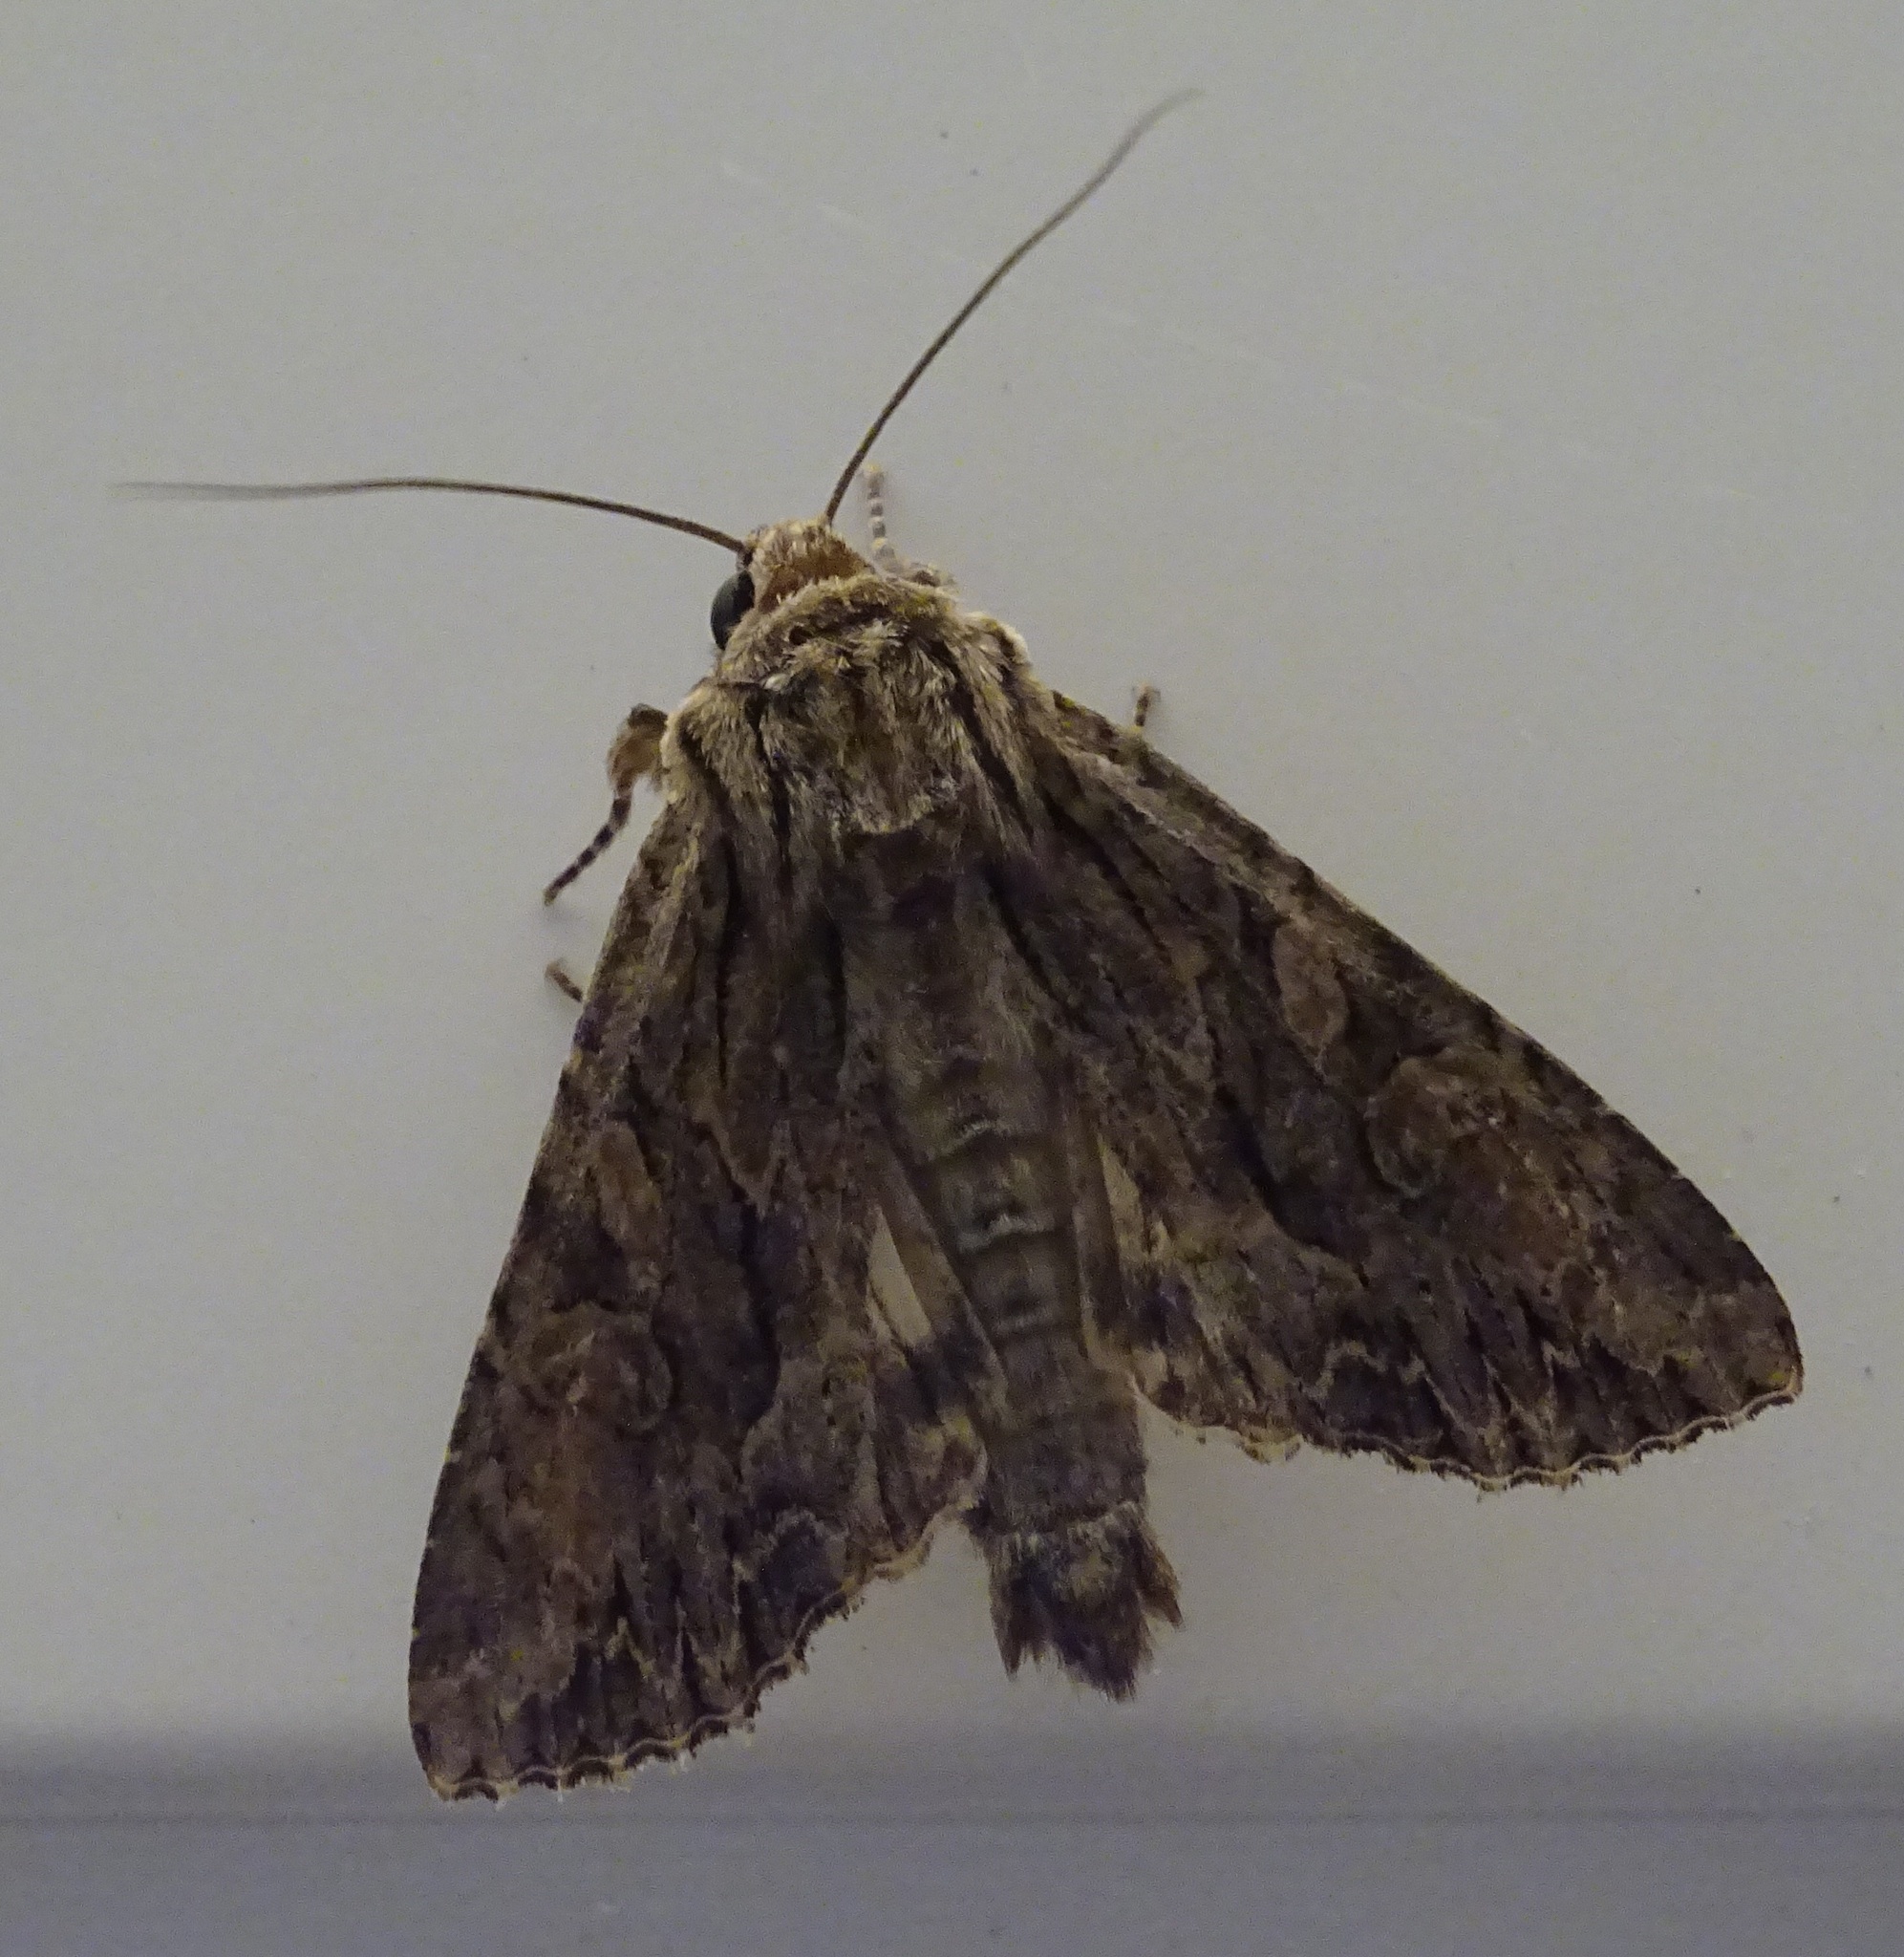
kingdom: Animalia
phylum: Arthropoda
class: Insecta
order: Lepidoptera
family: Noctuidae
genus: Apamea
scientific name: Apamea monoglypha
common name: Dark arches
